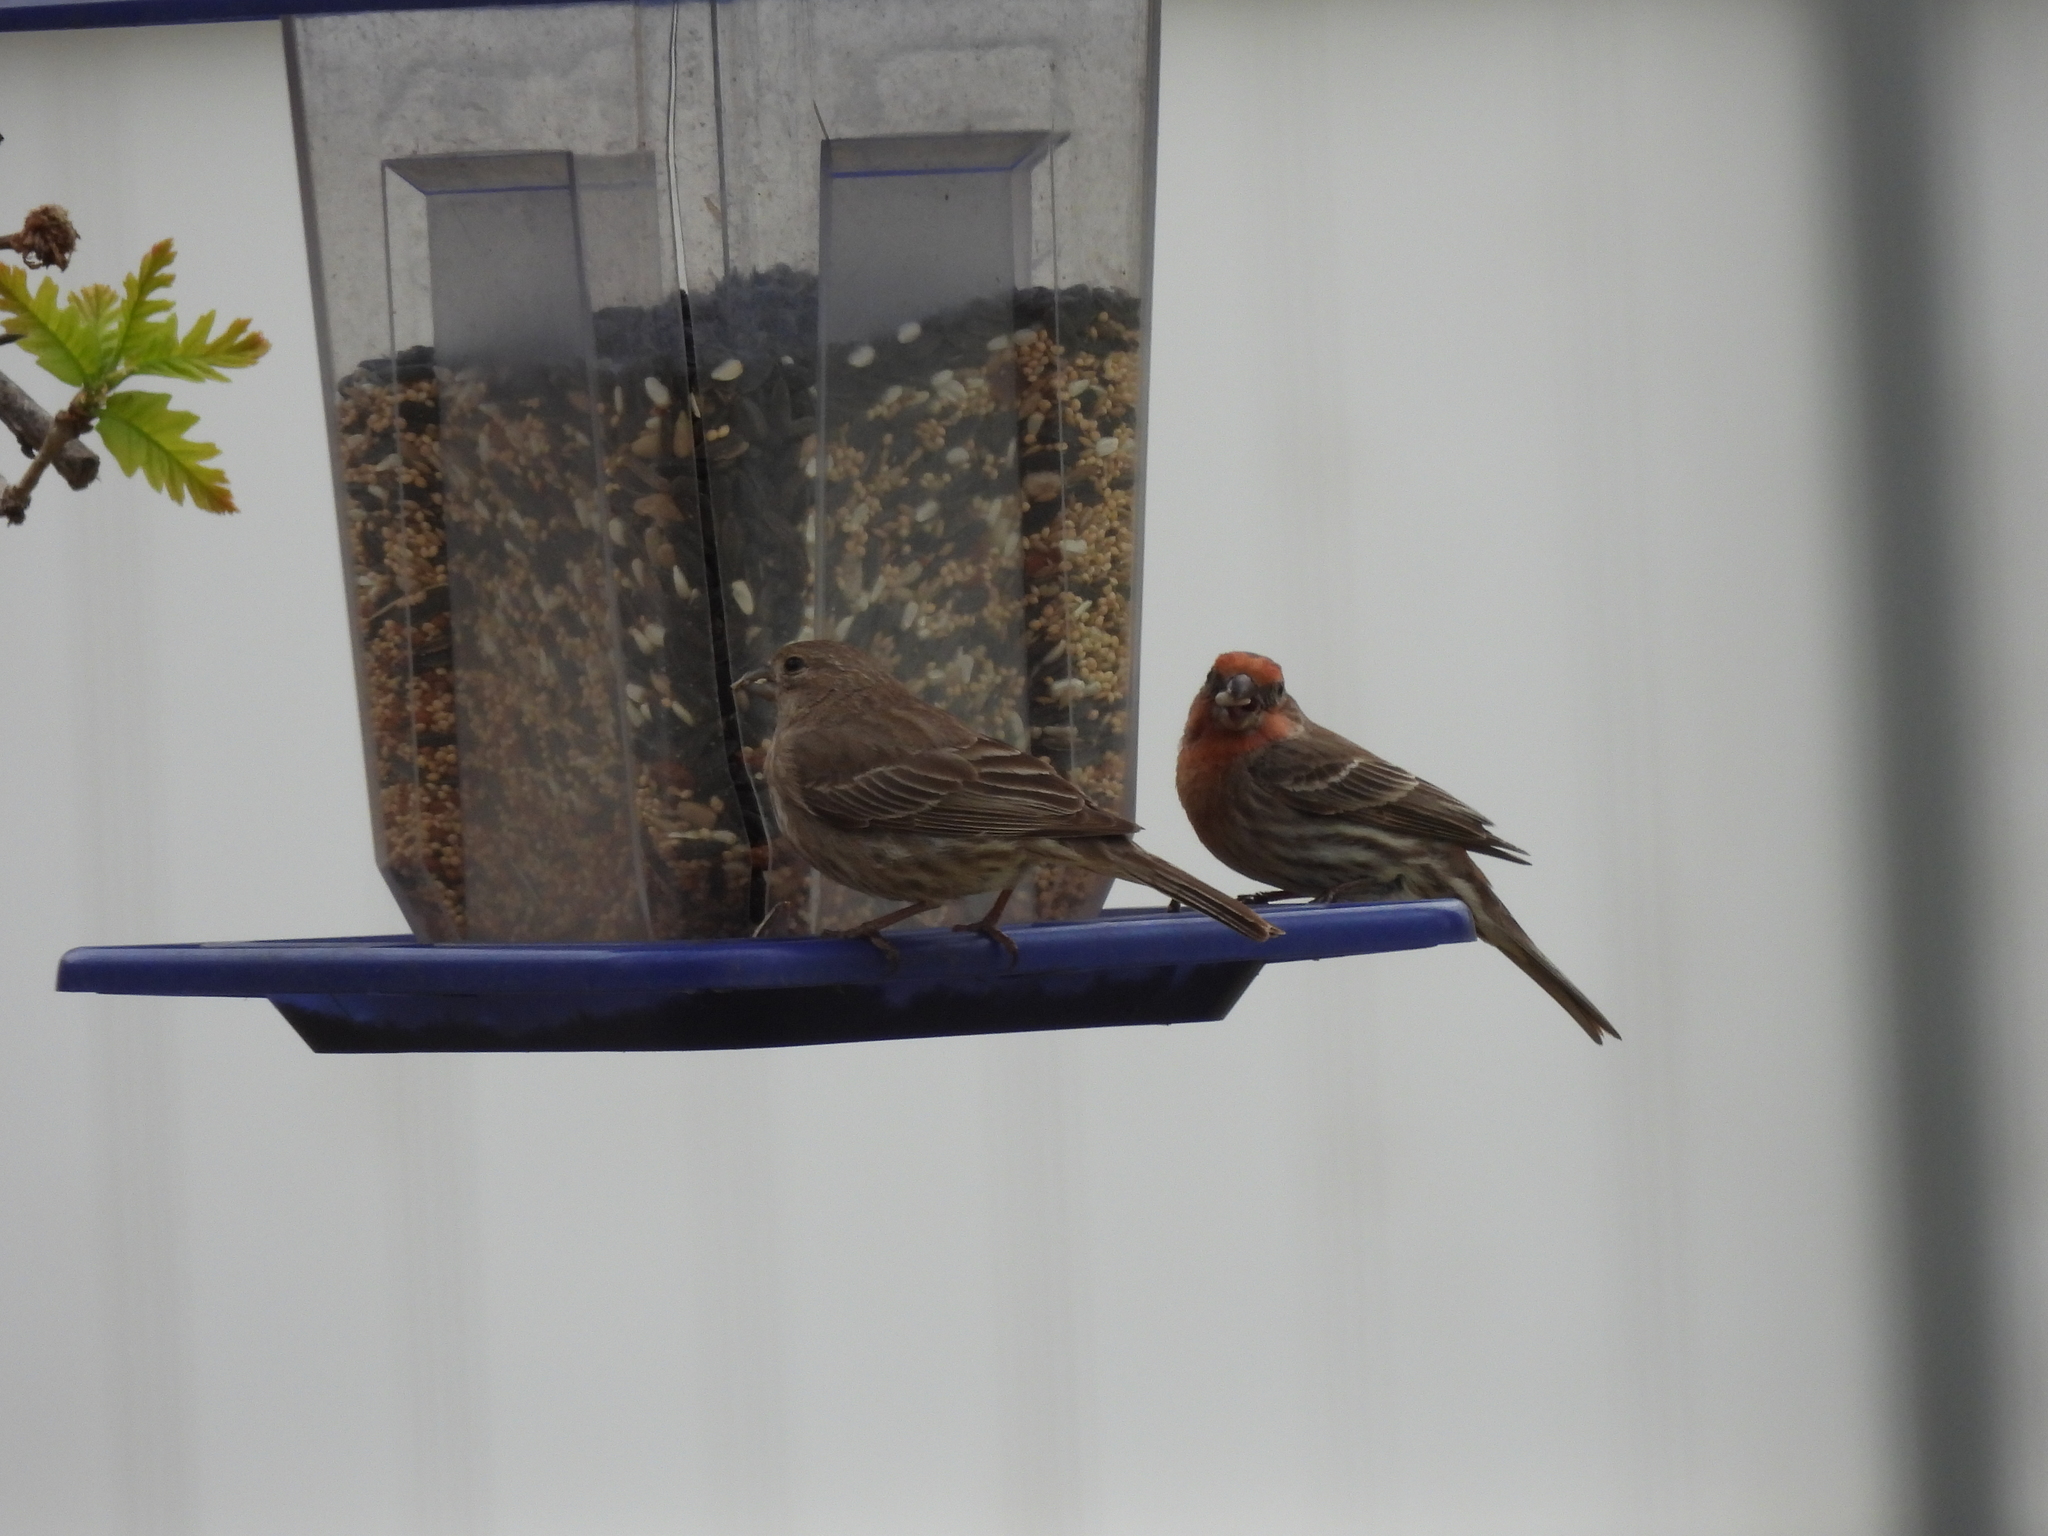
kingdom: Animalia
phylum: Chordata
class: Aves
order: Passeriformes
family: Fringillidae
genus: Haemorhous
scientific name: Haemorhous mexicanus
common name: House finch
